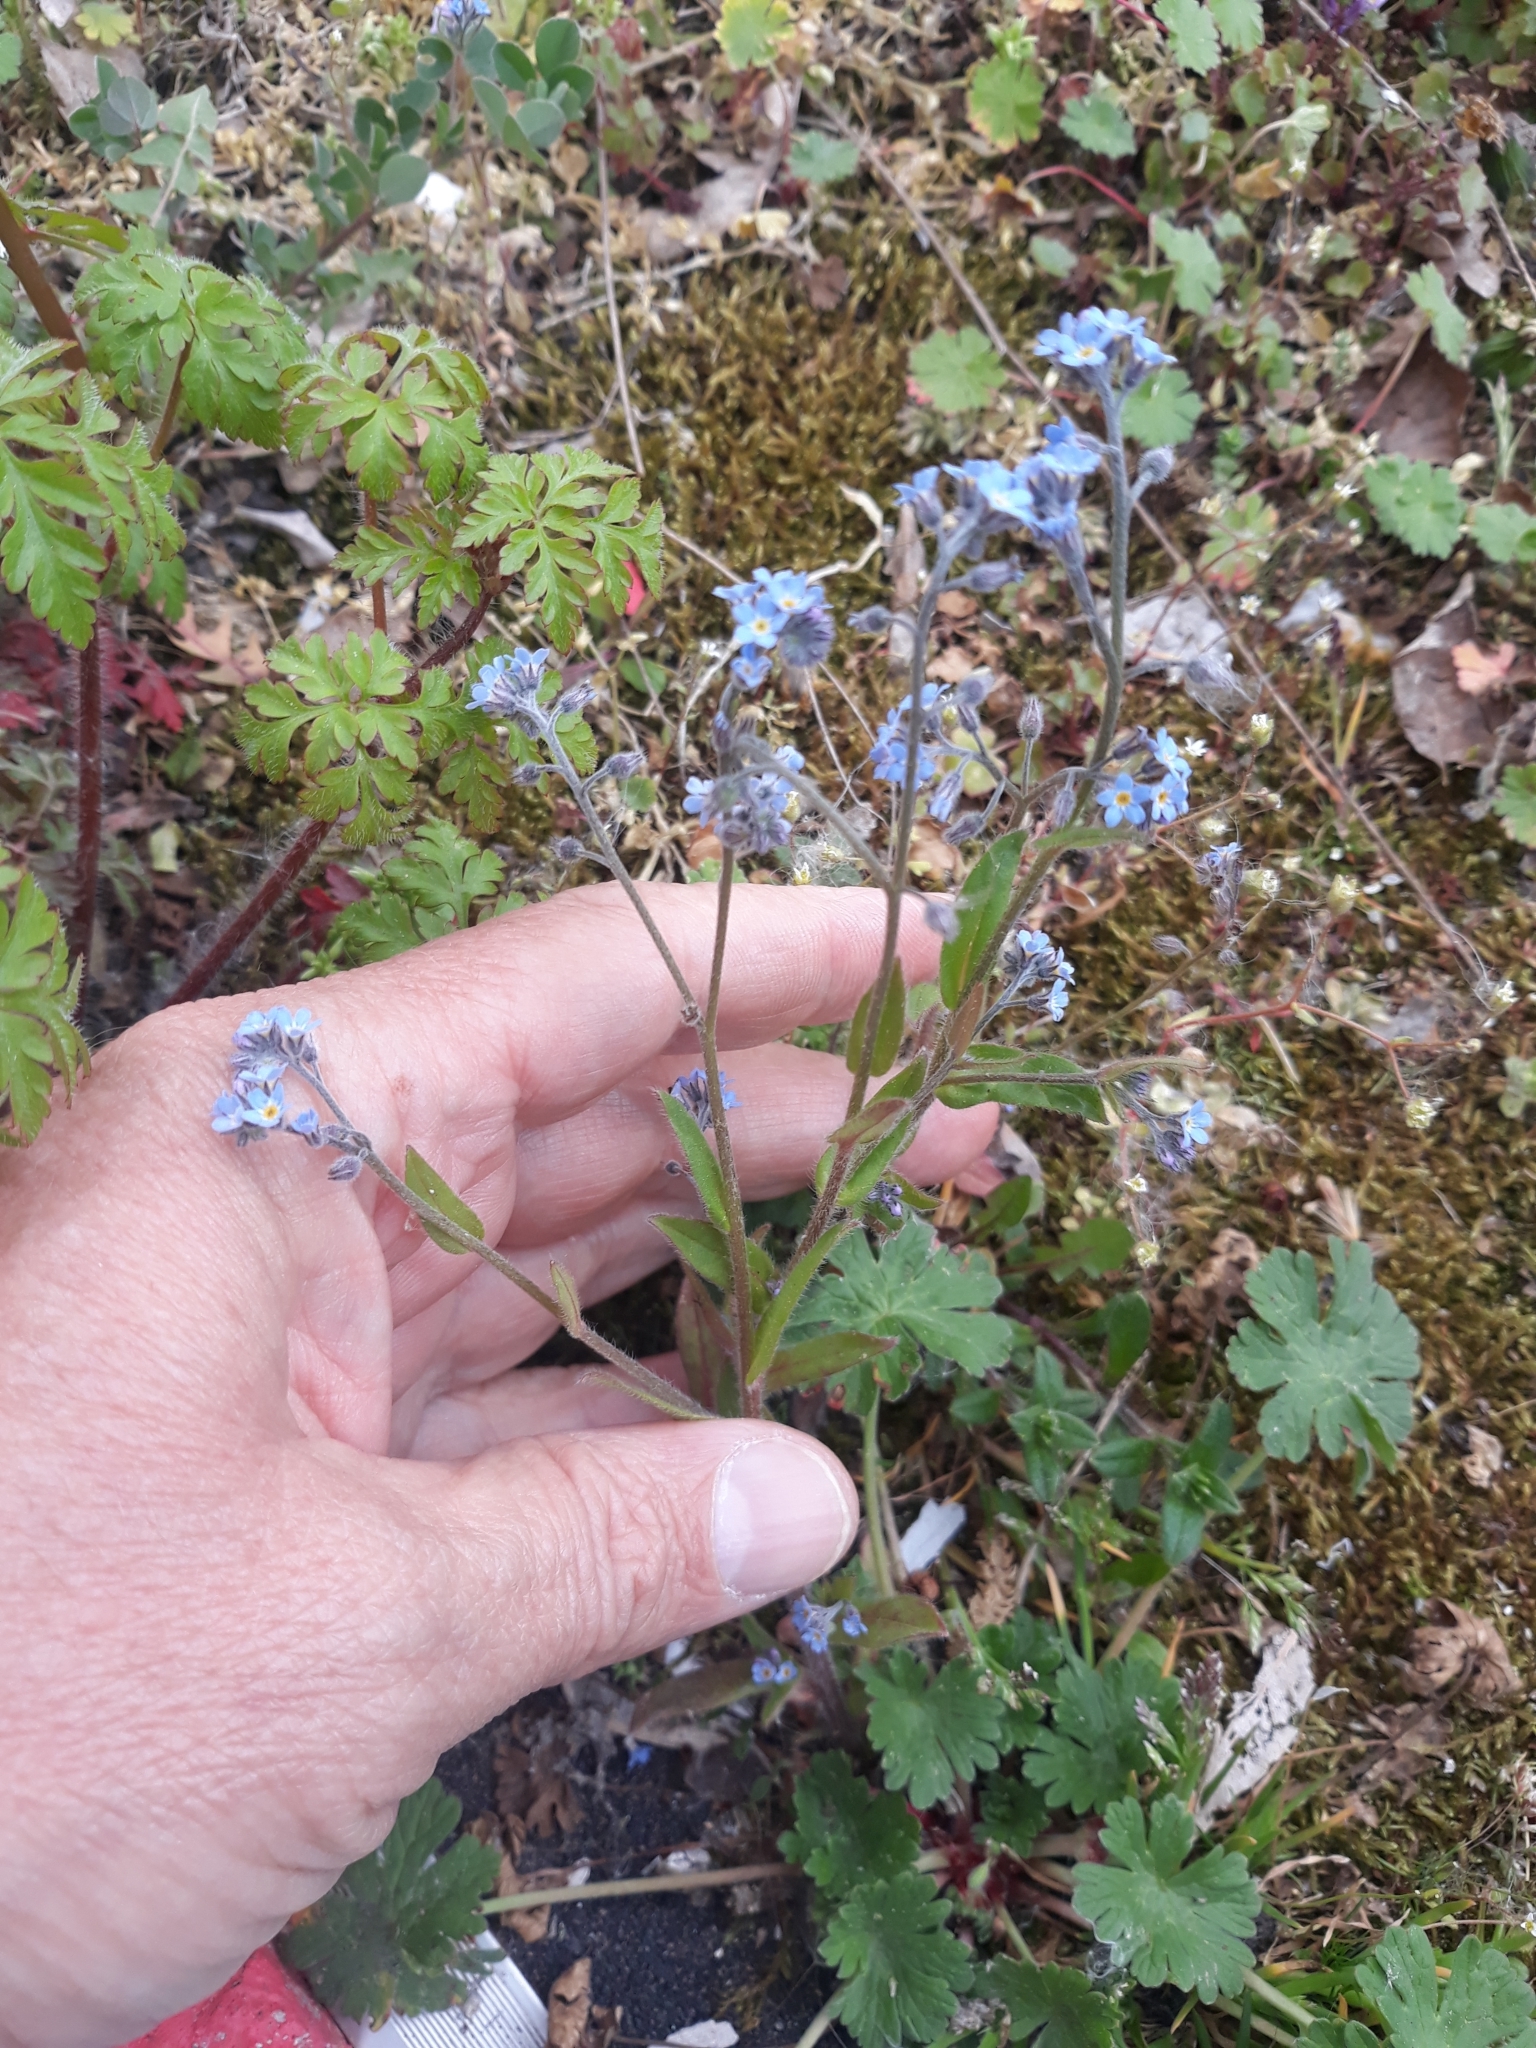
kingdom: Plantae
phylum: Tracheophyta
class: Magnoliopsida
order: Boraginales
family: Boraginaceae
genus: Myosotis
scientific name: Myosotis arvensis
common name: Field forget-me-not
